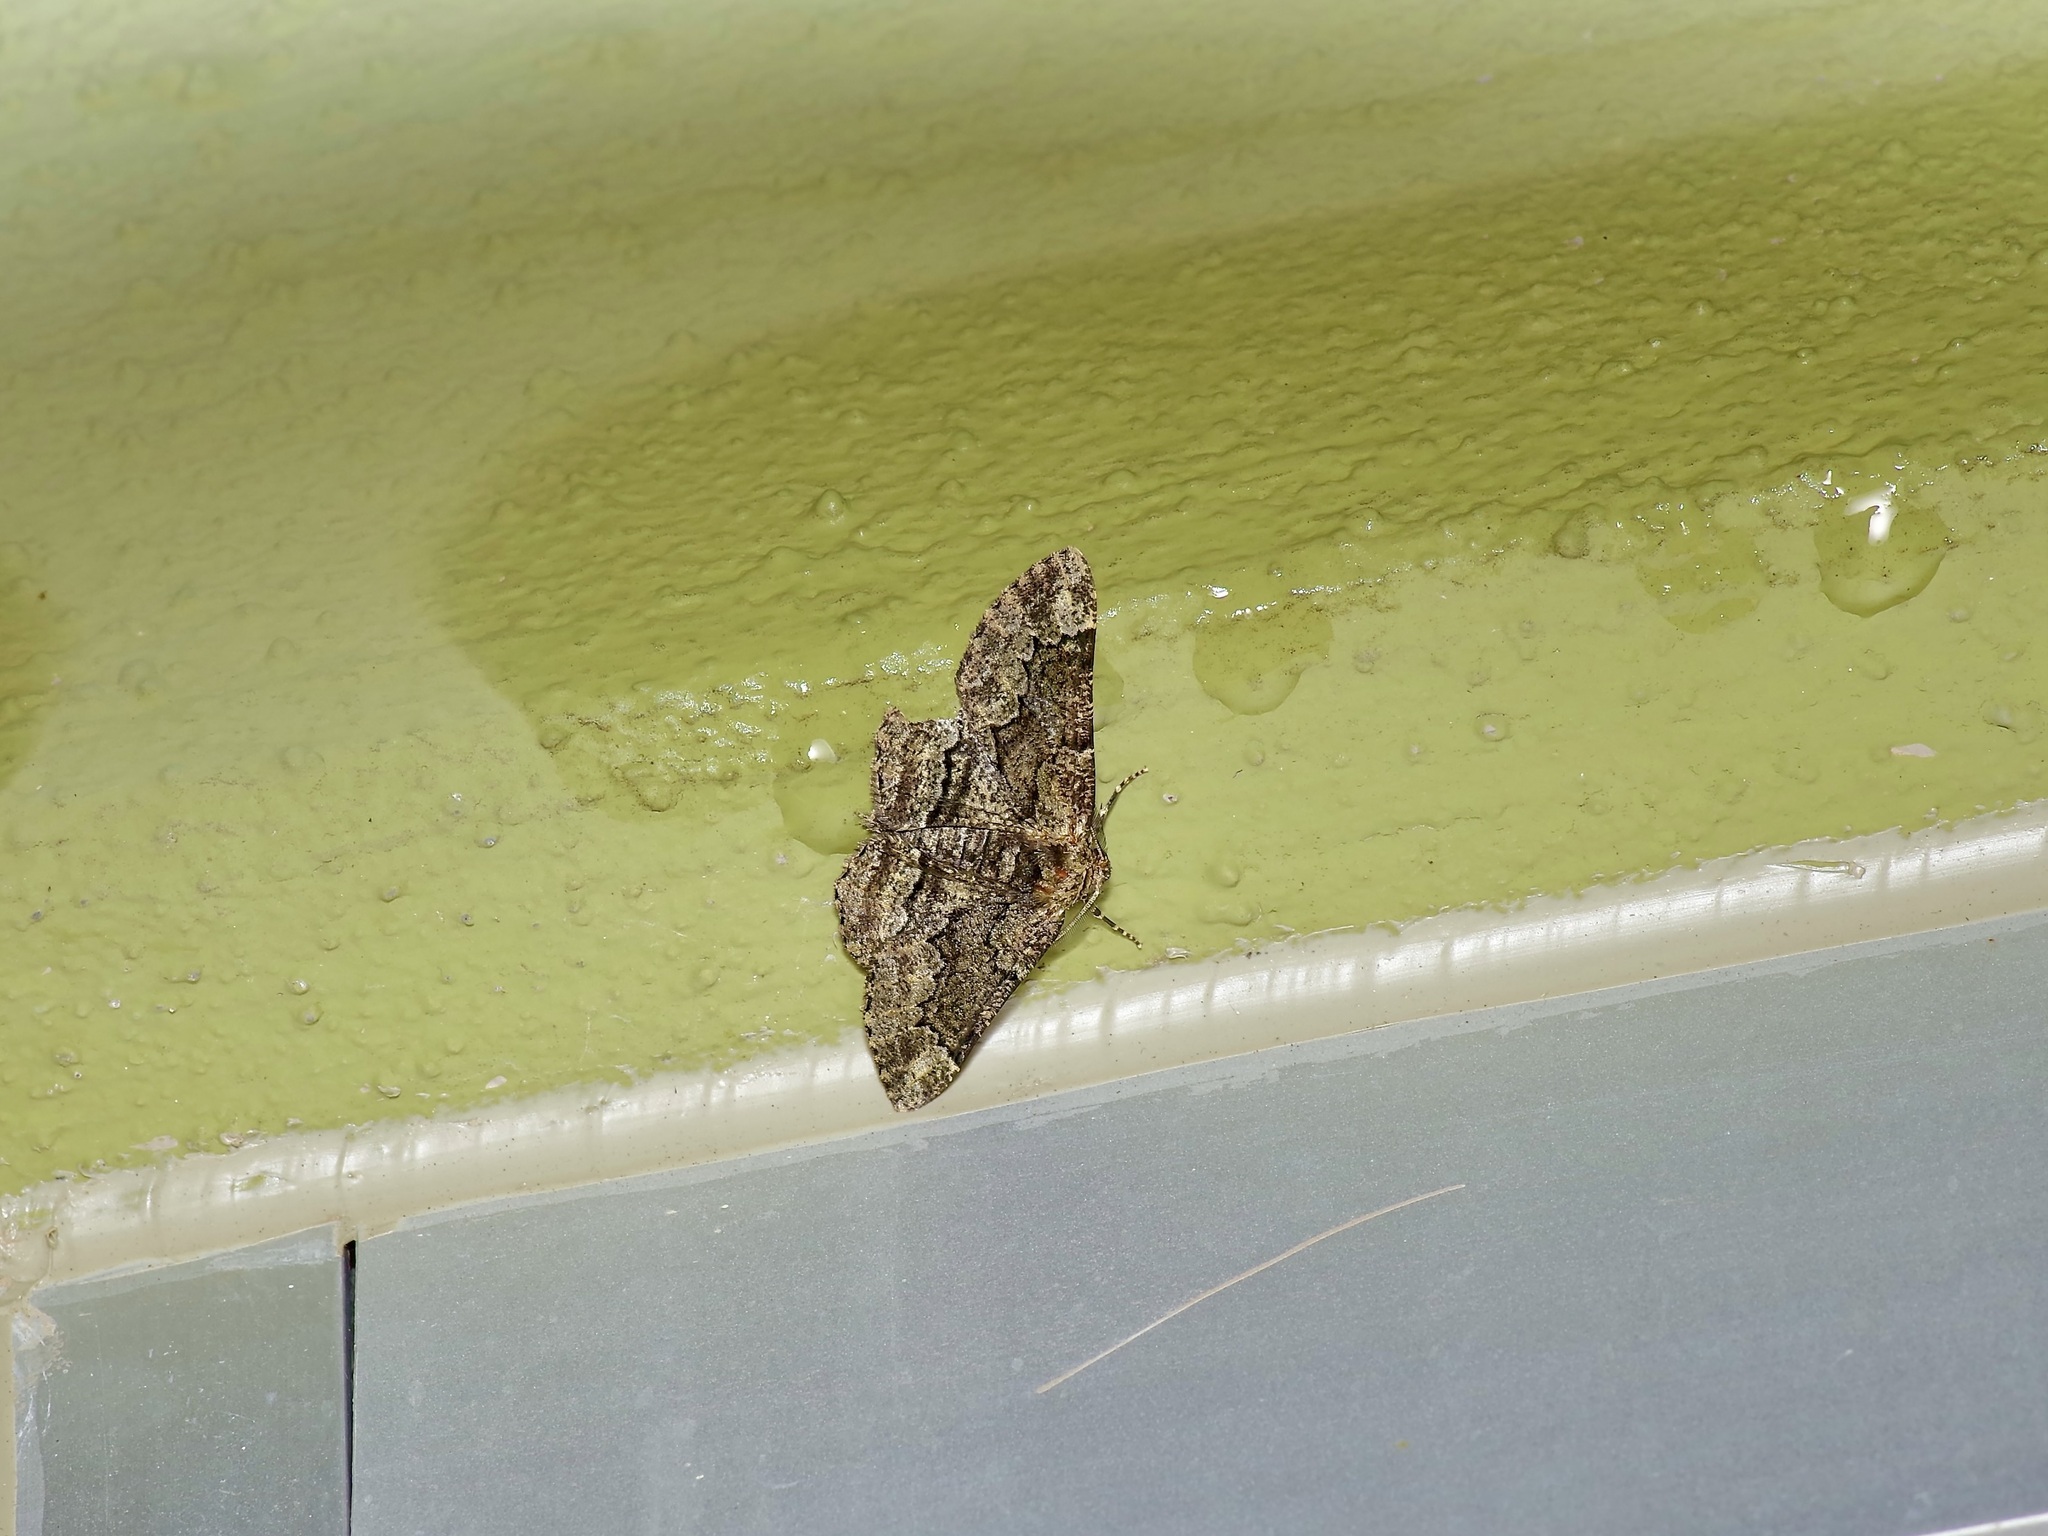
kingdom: Animalia
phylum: Arthropoda
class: Insecta
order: Lepidoptera
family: Geometridae
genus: Phaeoura
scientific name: Phaeoura quernaria
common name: Oak beauty
